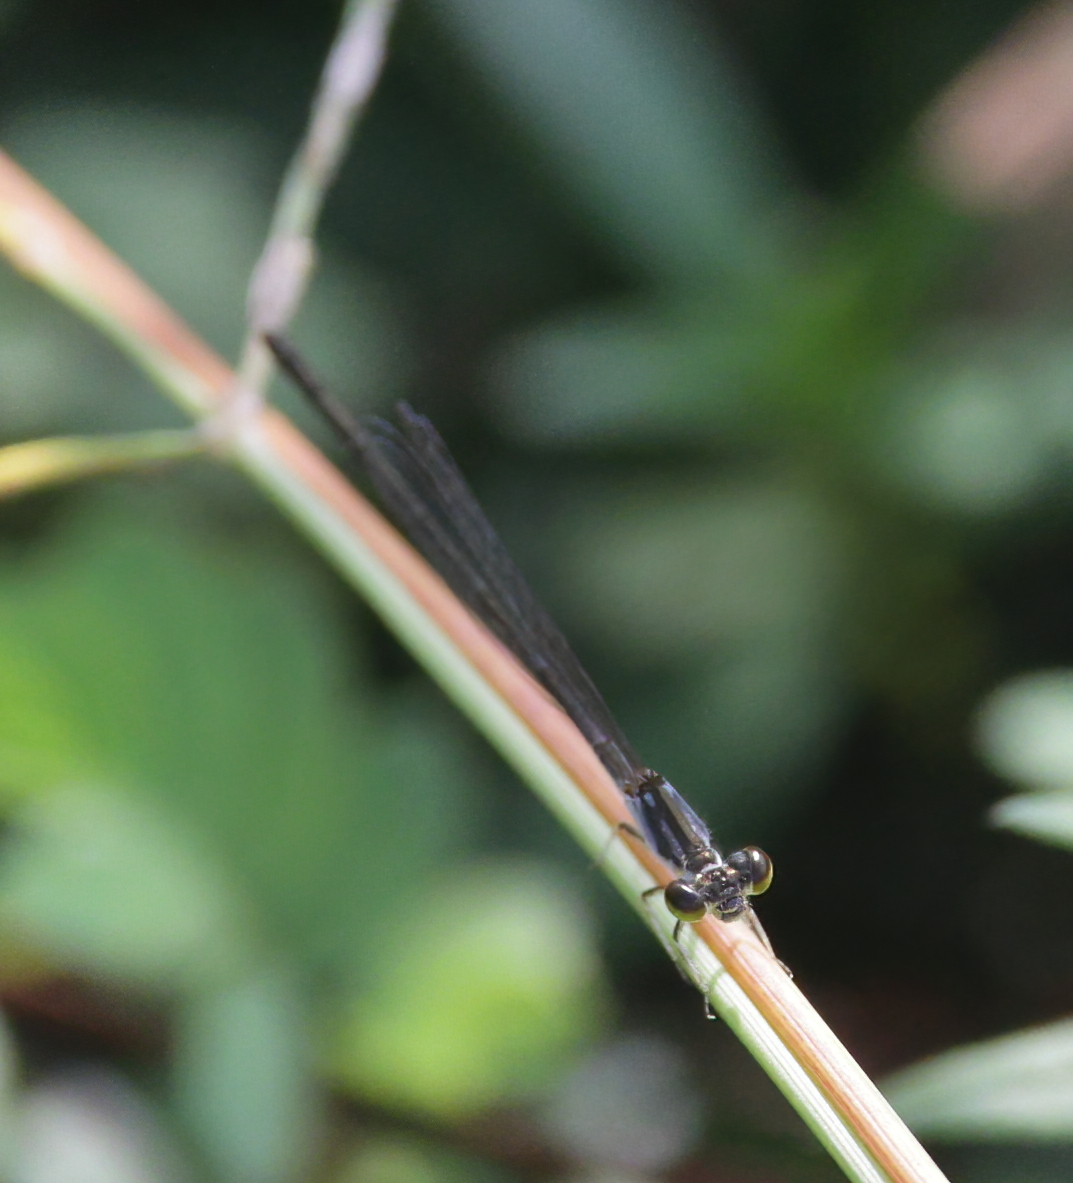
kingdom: Animalia
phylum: Arthropoda
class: Insecta
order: Odonata
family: Coenagrionidae
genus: Ischnura
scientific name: Ischnura posita
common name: Fragile forktail
